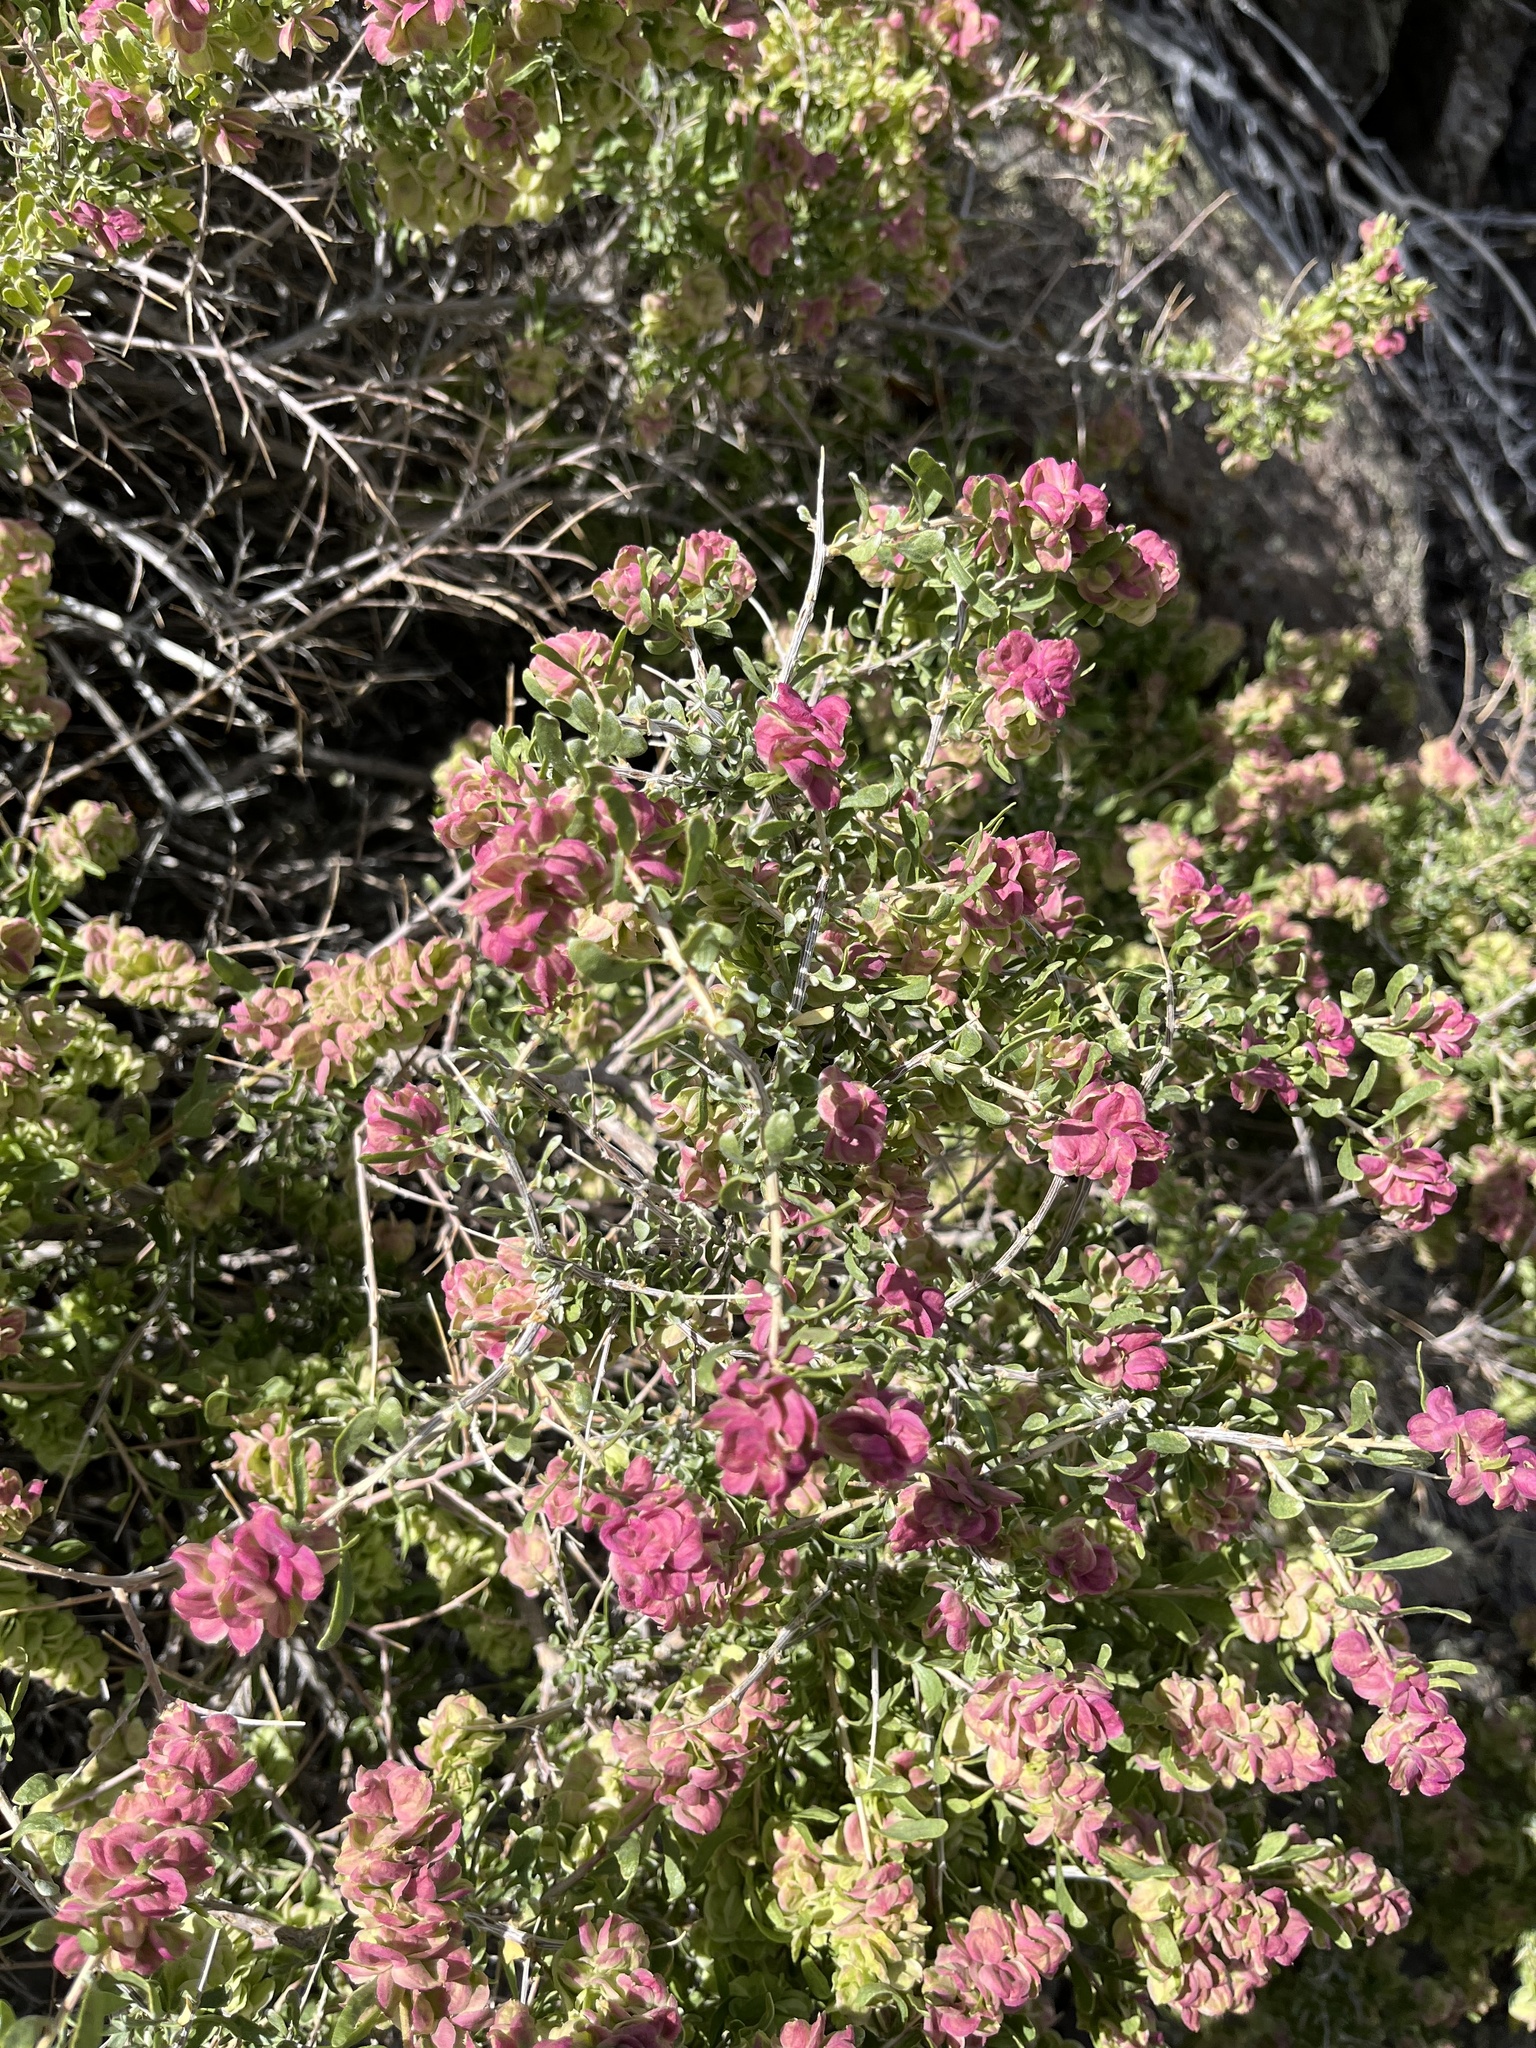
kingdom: Plantae
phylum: Tracheophyta
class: Magnoliopsida
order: Caryophyllales
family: Amaranthaceae
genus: Grayia
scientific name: Grayia spinosa
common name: Spiny hopsage
